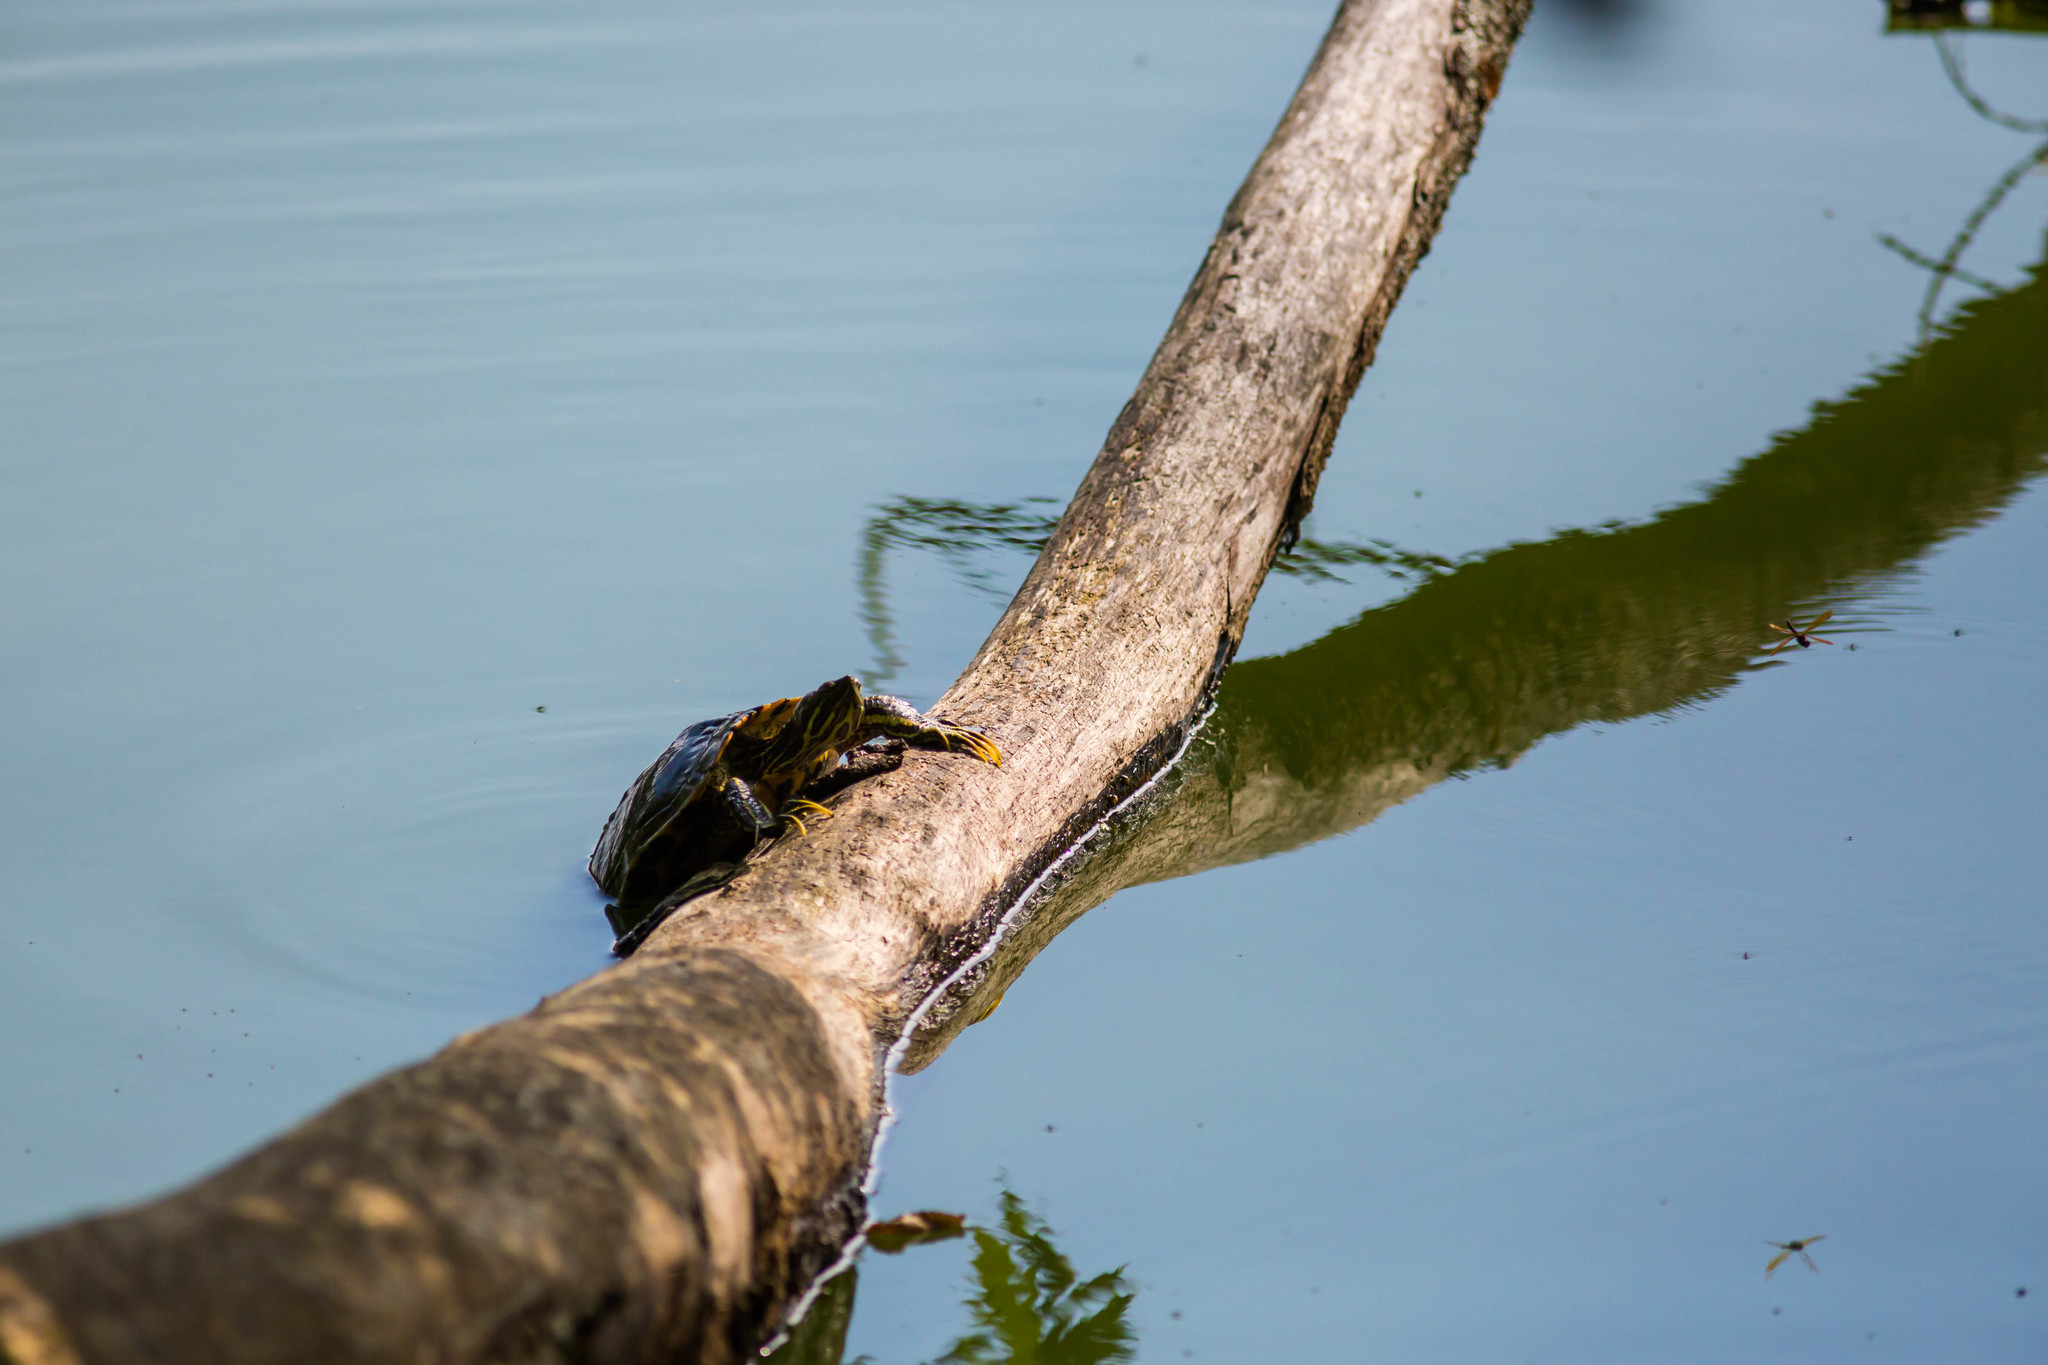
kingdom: Animalia
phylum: Chordata
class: Testudines
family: Emydidae
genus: Trachemys
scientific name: Trachemys scripta
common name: Slider
